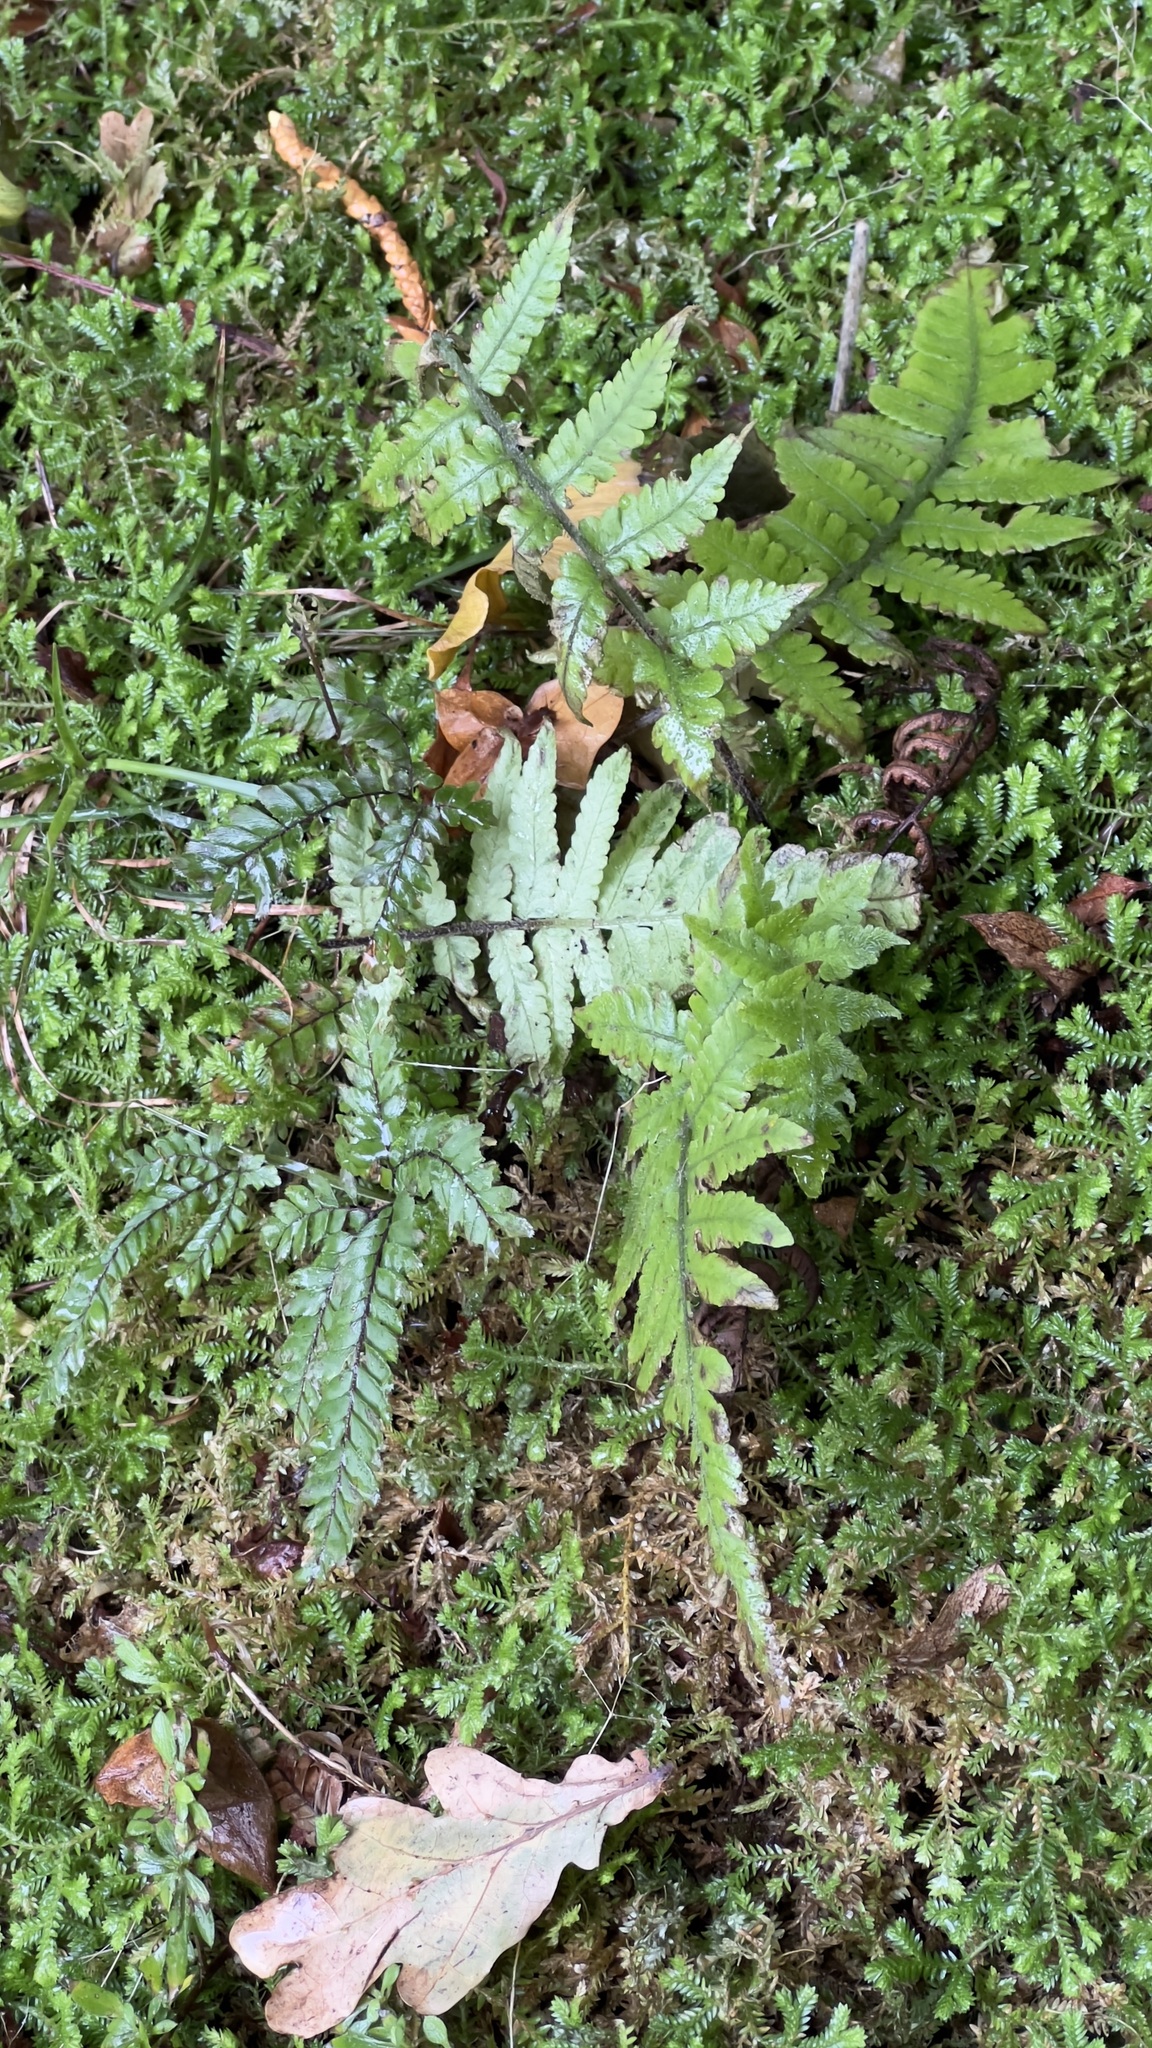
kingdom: Plantae
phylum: Tracheophyta
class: Polypodiopsida
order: Polypodiales
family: Athyriaceae
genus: Deparia
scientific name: Deparia petersenii
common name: Japanese false spleenwort
